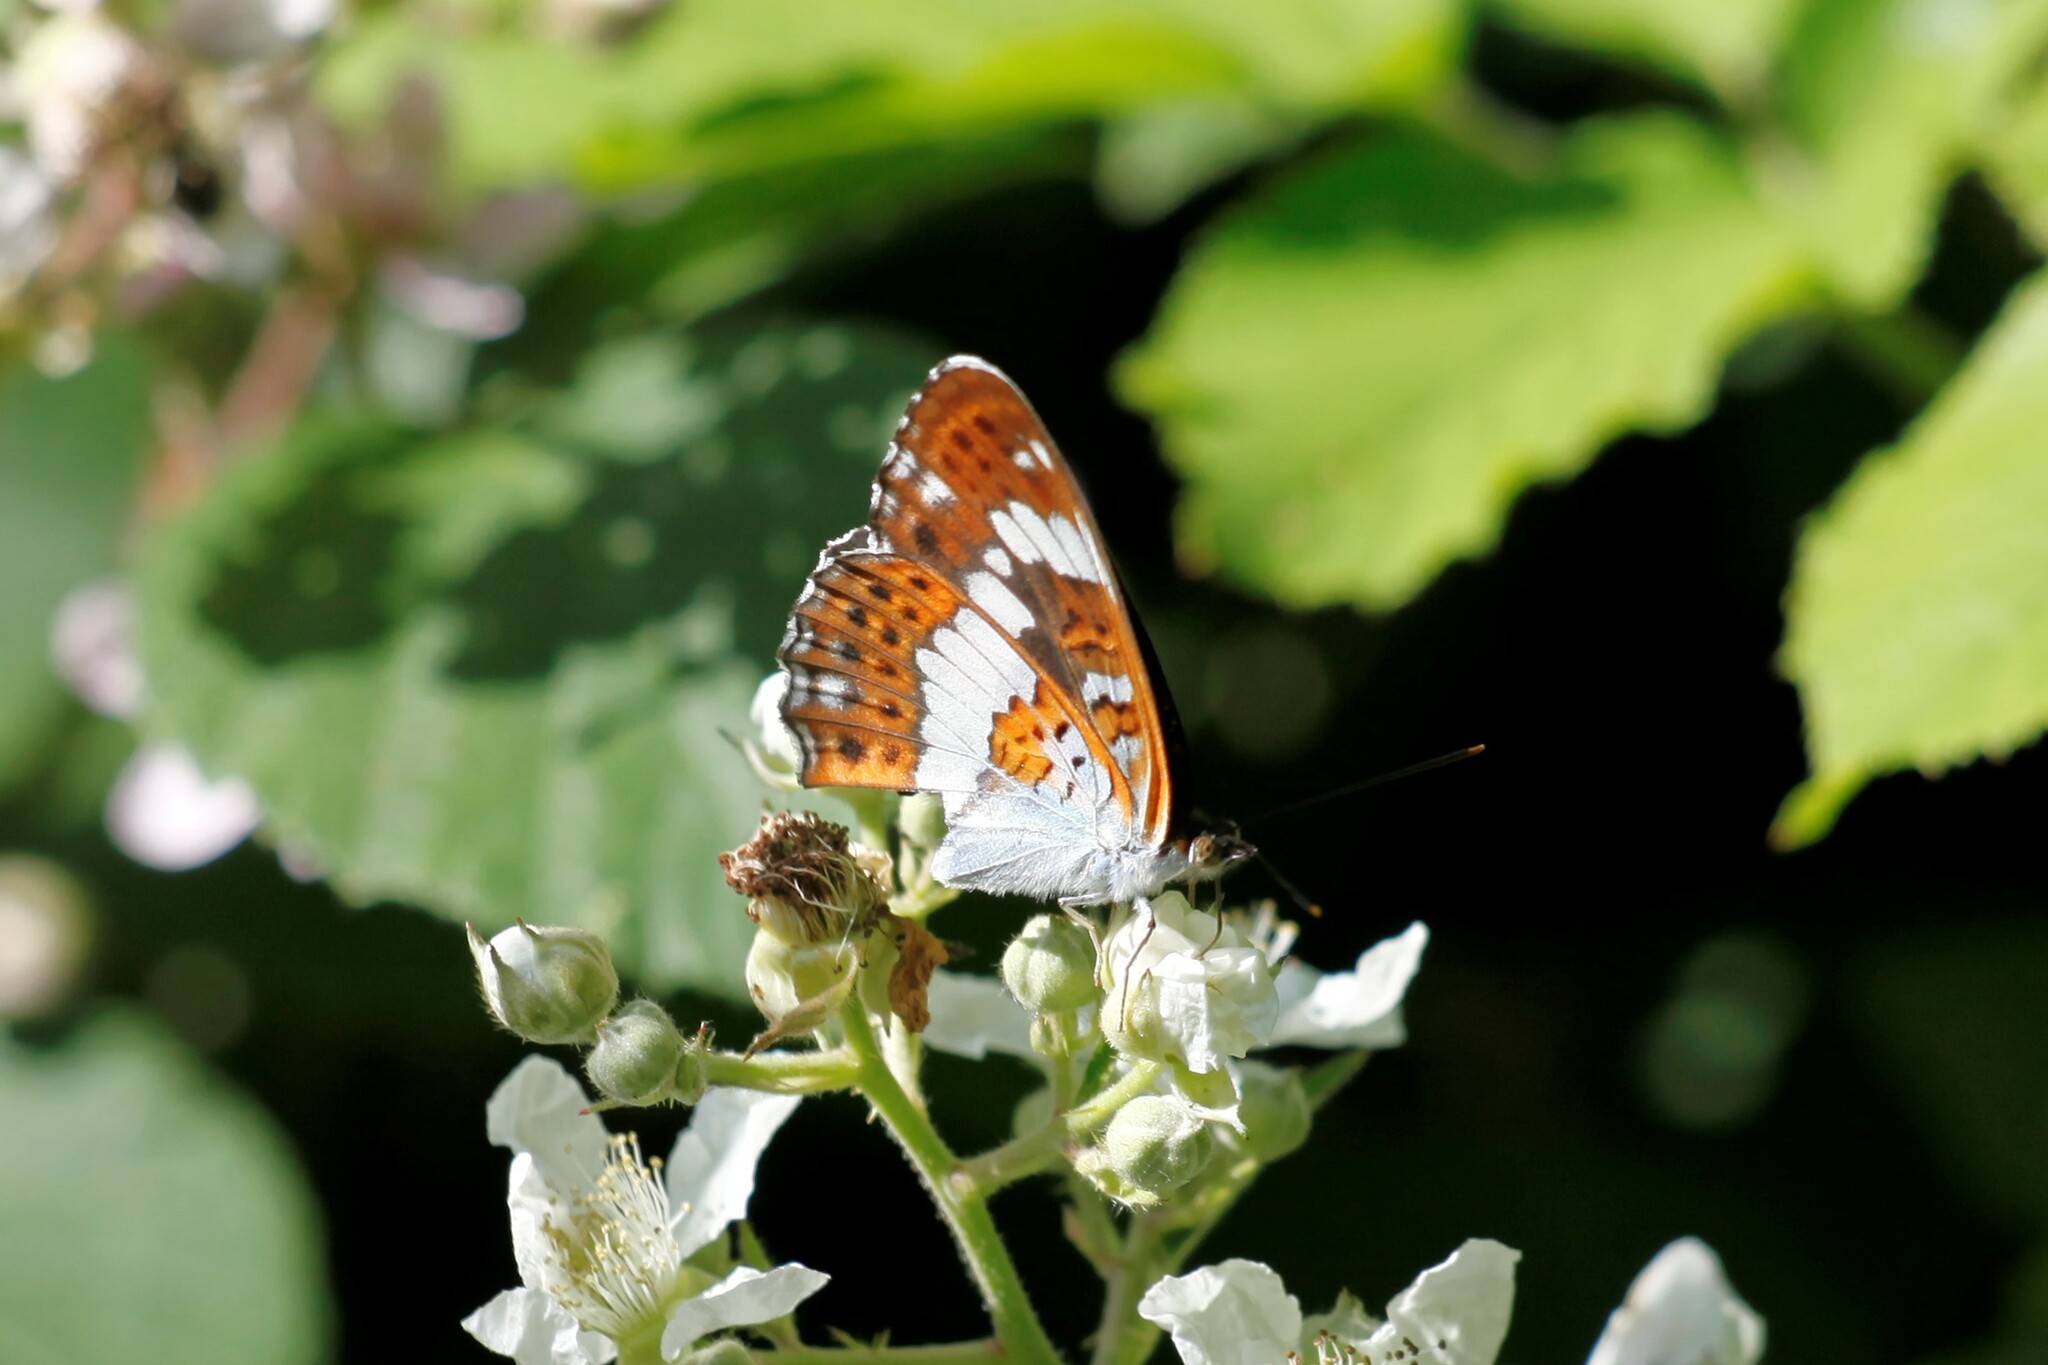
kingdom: Animalia
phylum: Arthropoda
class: Insecta
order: Lepidoptera
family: Nymphalidae
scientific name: Nymphalidae
